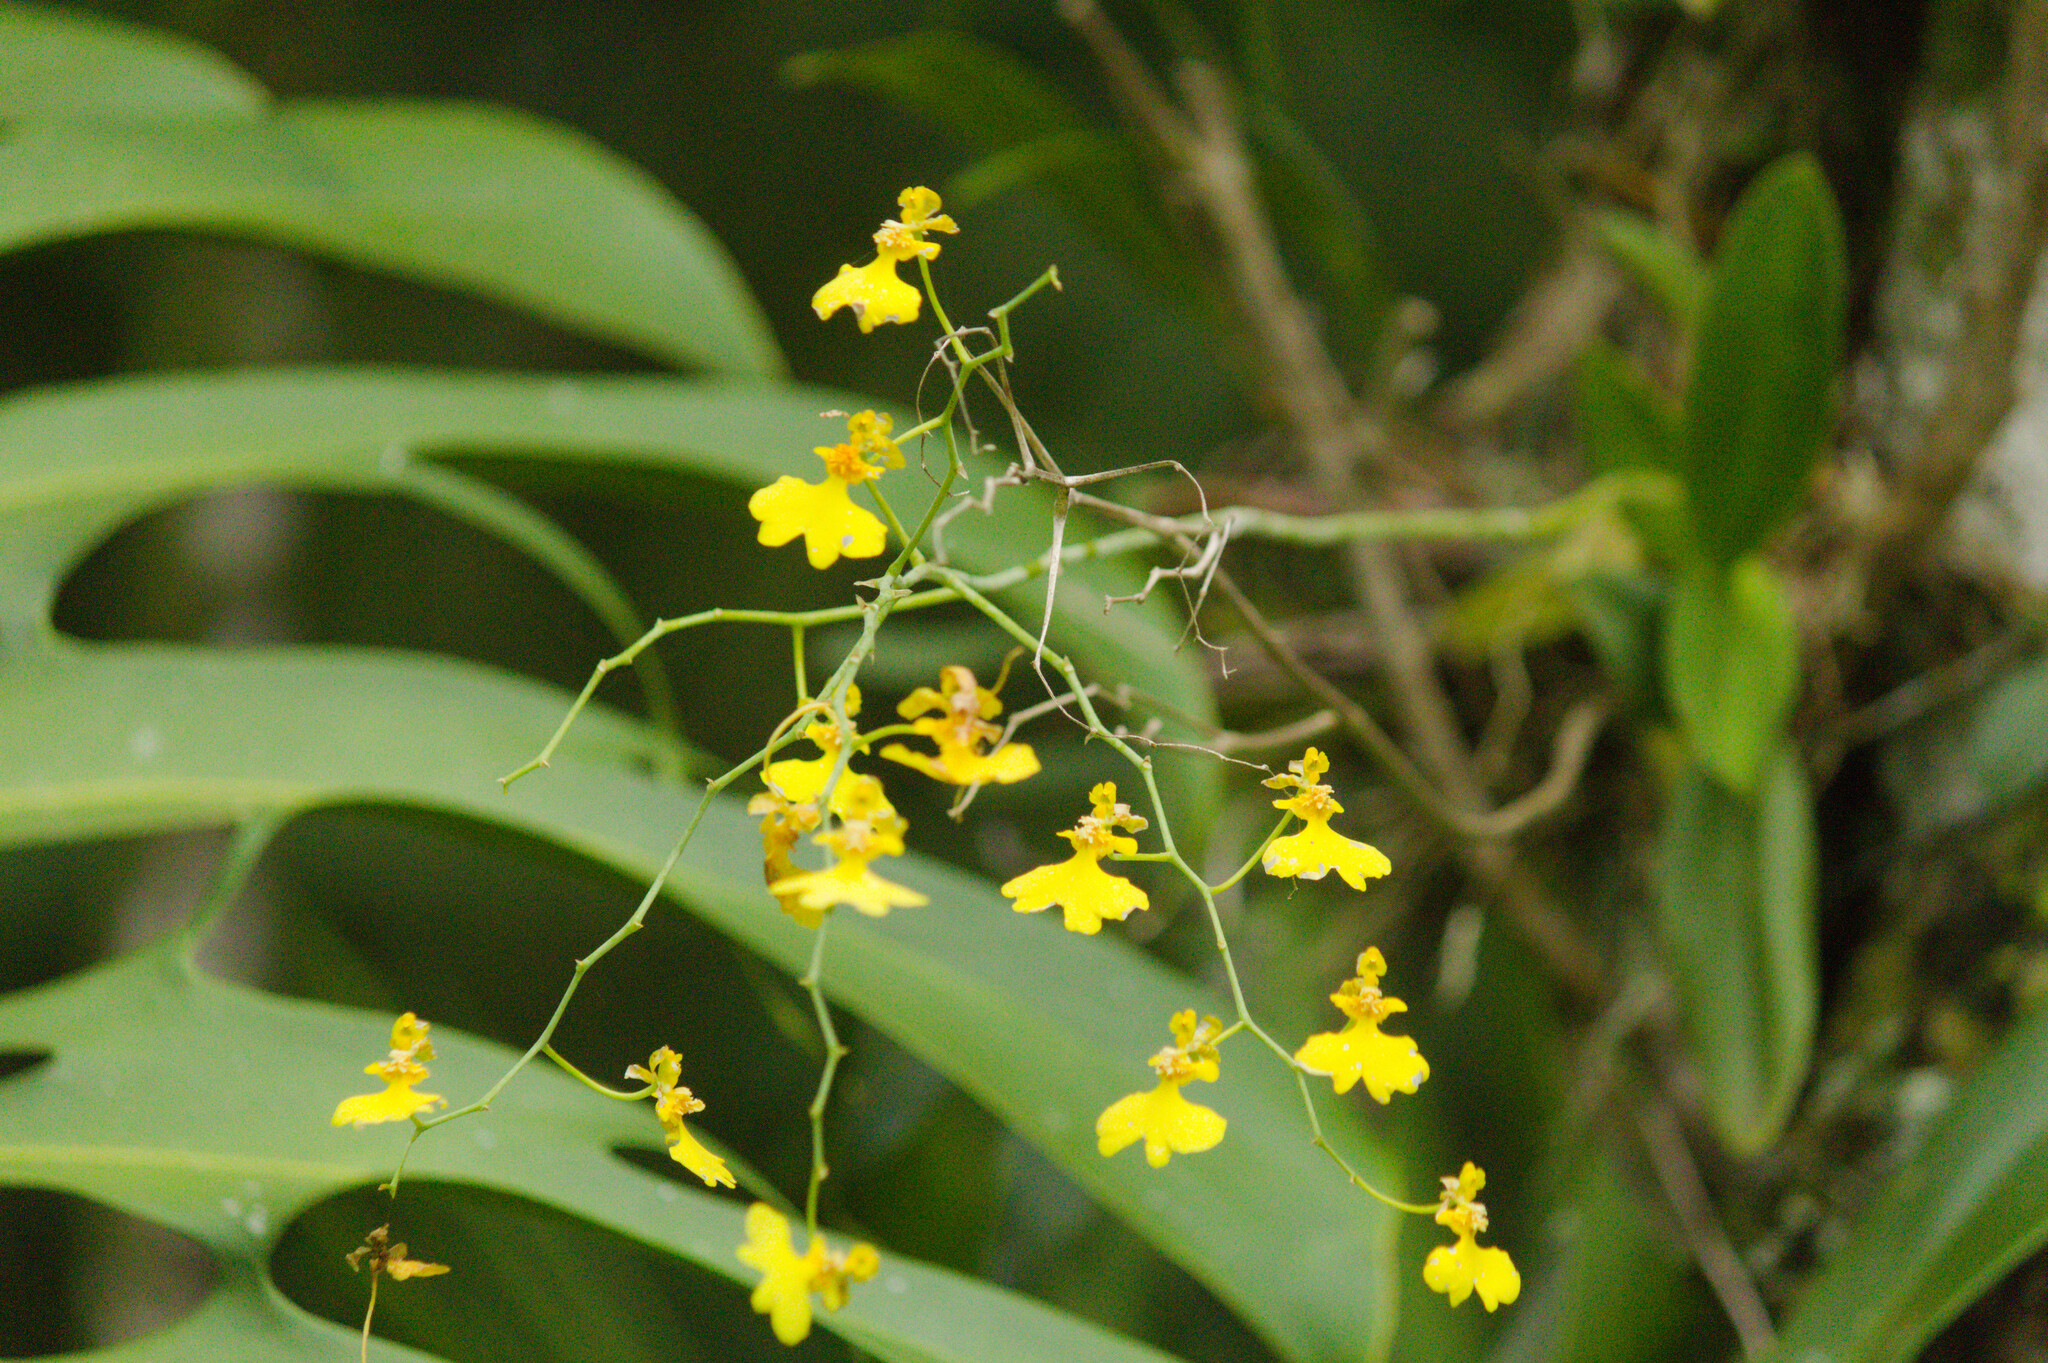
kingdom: Plantae
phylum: Tracheophyta
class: Liliopsida
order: Asparagales
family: Orchidaceae
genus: Gomesa
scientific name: Gomesa flexuosa
